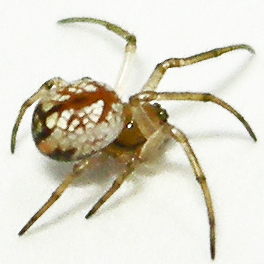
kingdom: Animalia
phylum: Arthropoda
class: Arachnida
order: Araneae
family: Tetragnathidae
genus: Leucauge
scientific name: Leucauge venusta
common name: Longjawed orb weavers
